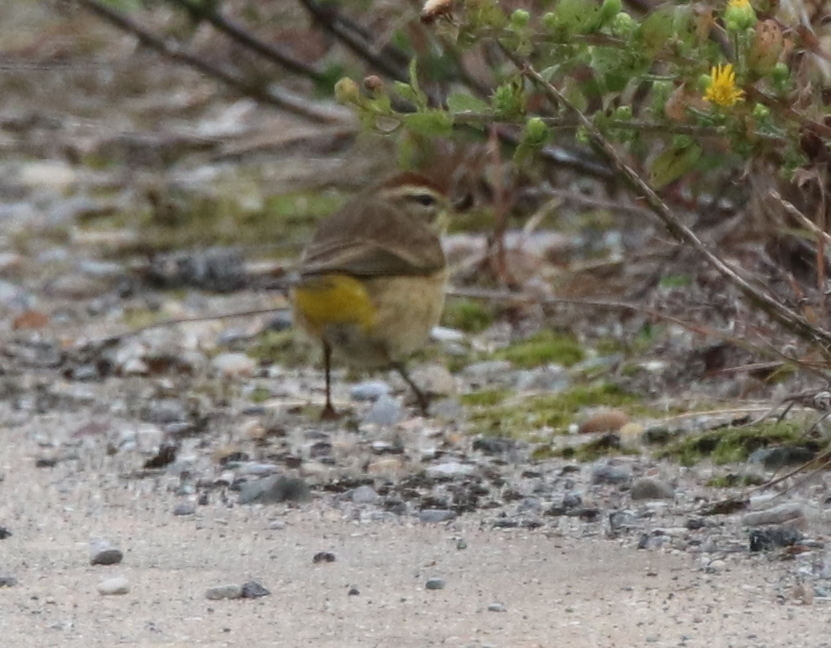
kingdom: Animalia
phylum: Chordata
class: Aves
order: Passeriformes
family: Parulidae
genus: Setophaga
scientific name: Setophaga palmarum
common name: Palm warbler
